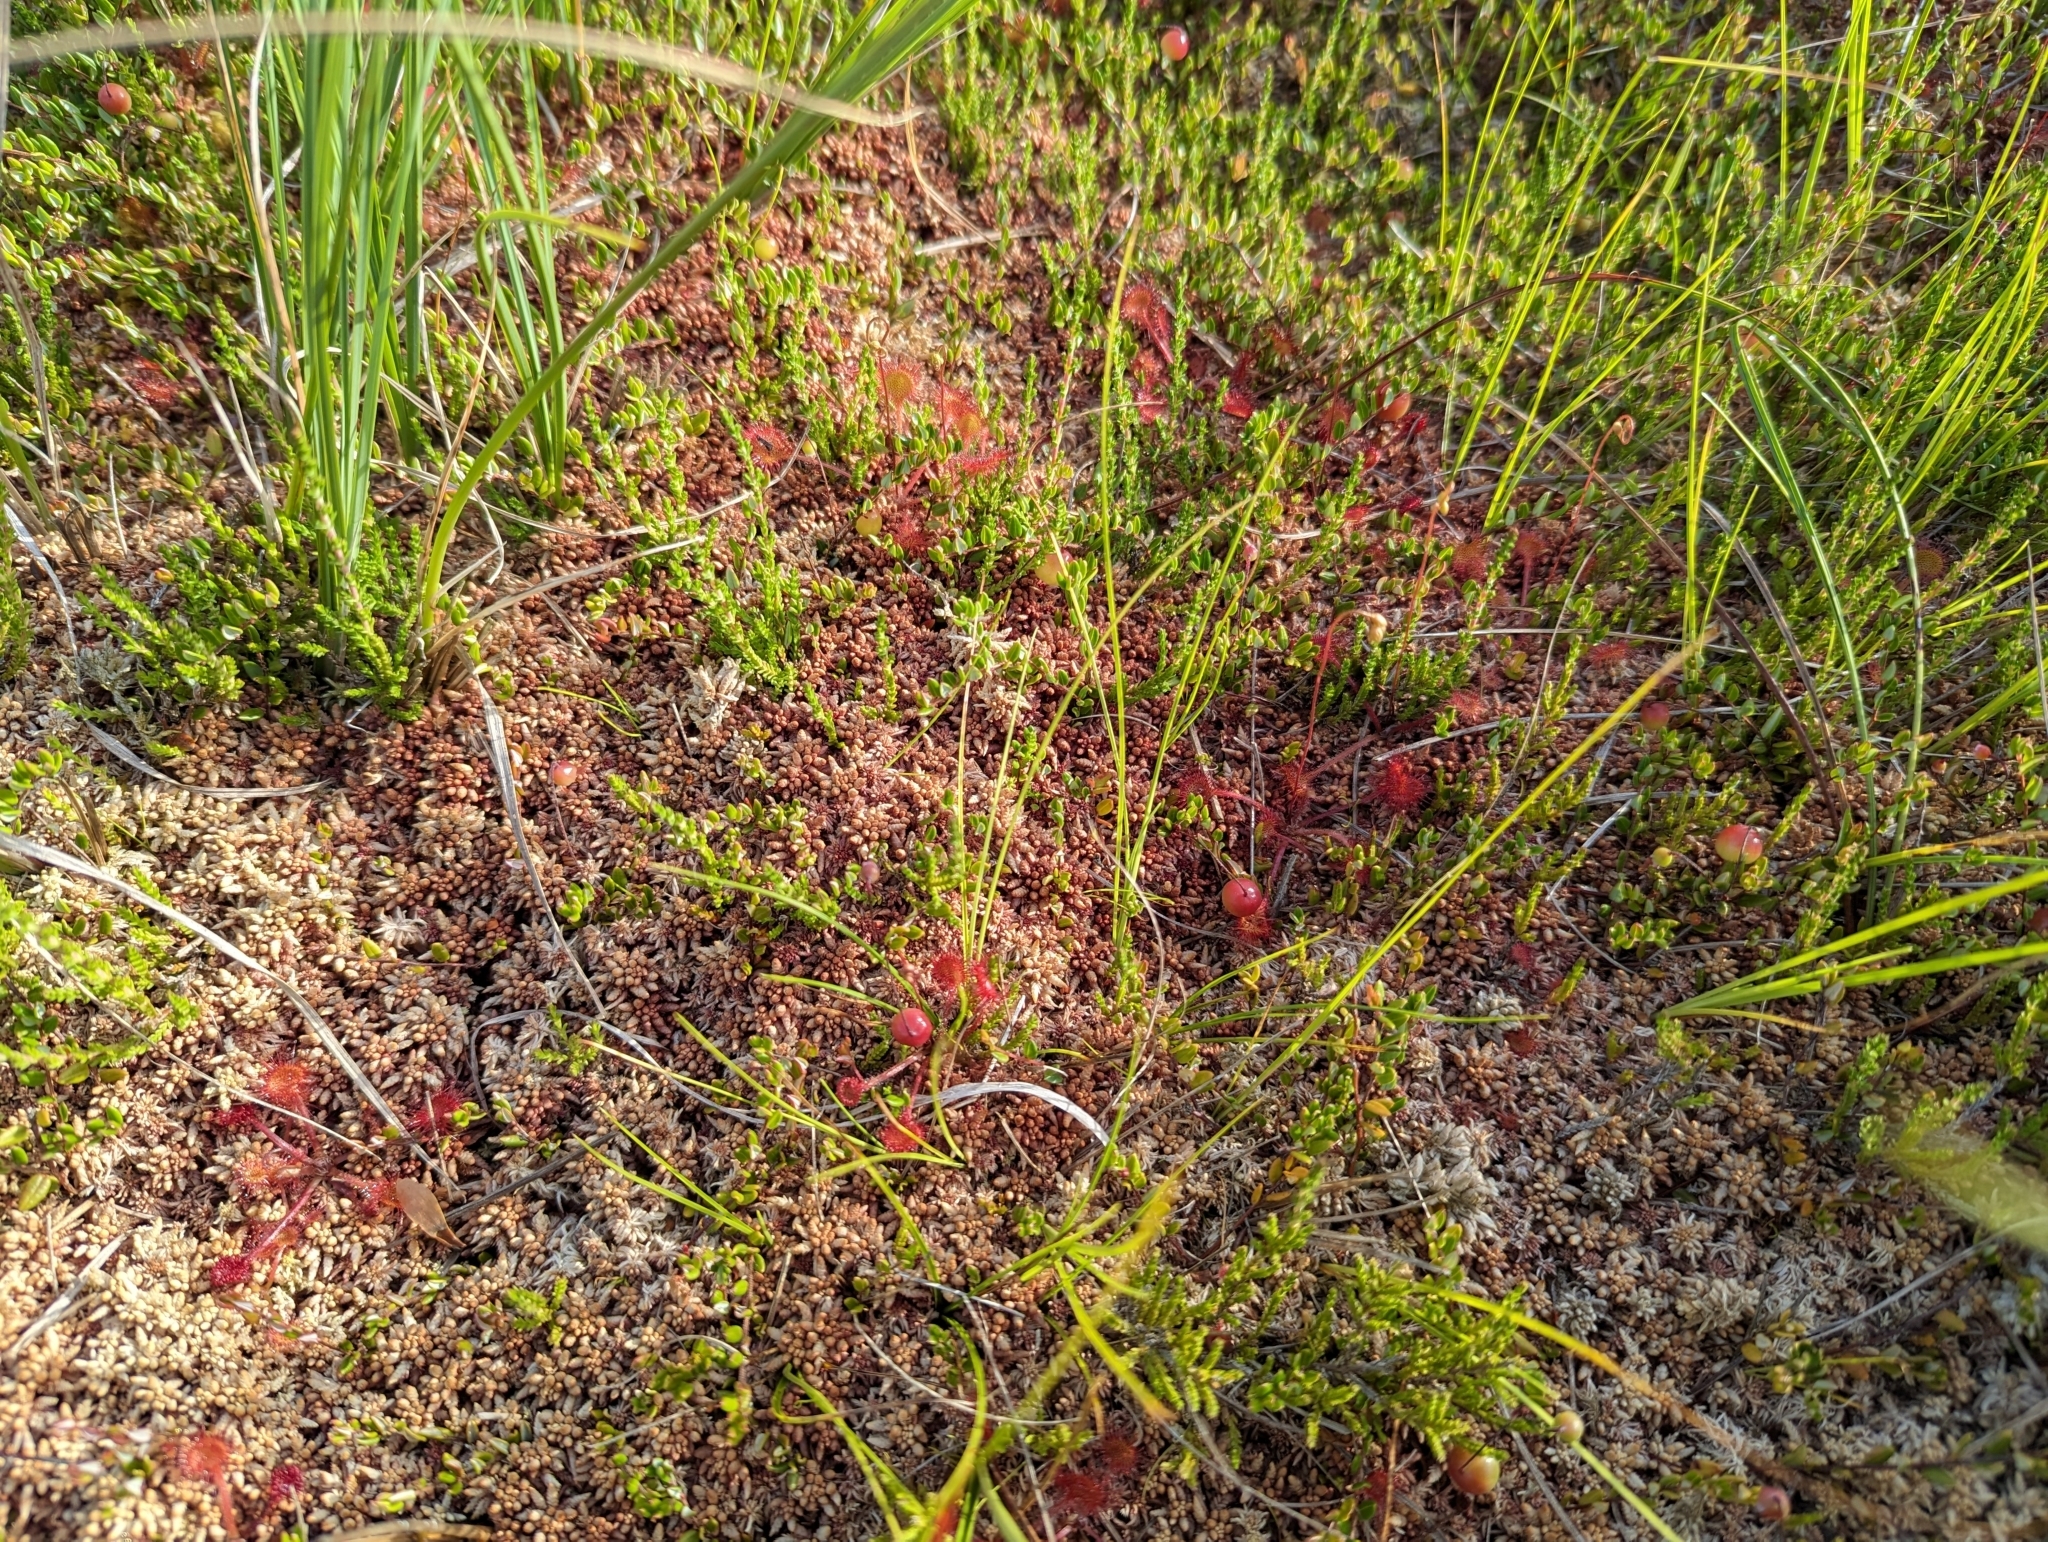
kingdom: Plantae
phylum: Tracheophyta
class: Magnoliopsida
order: Caryophyllales
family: Droseraceae
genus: Drosera
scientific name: Drosera rotundifolia
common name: Round-leaved sundew
